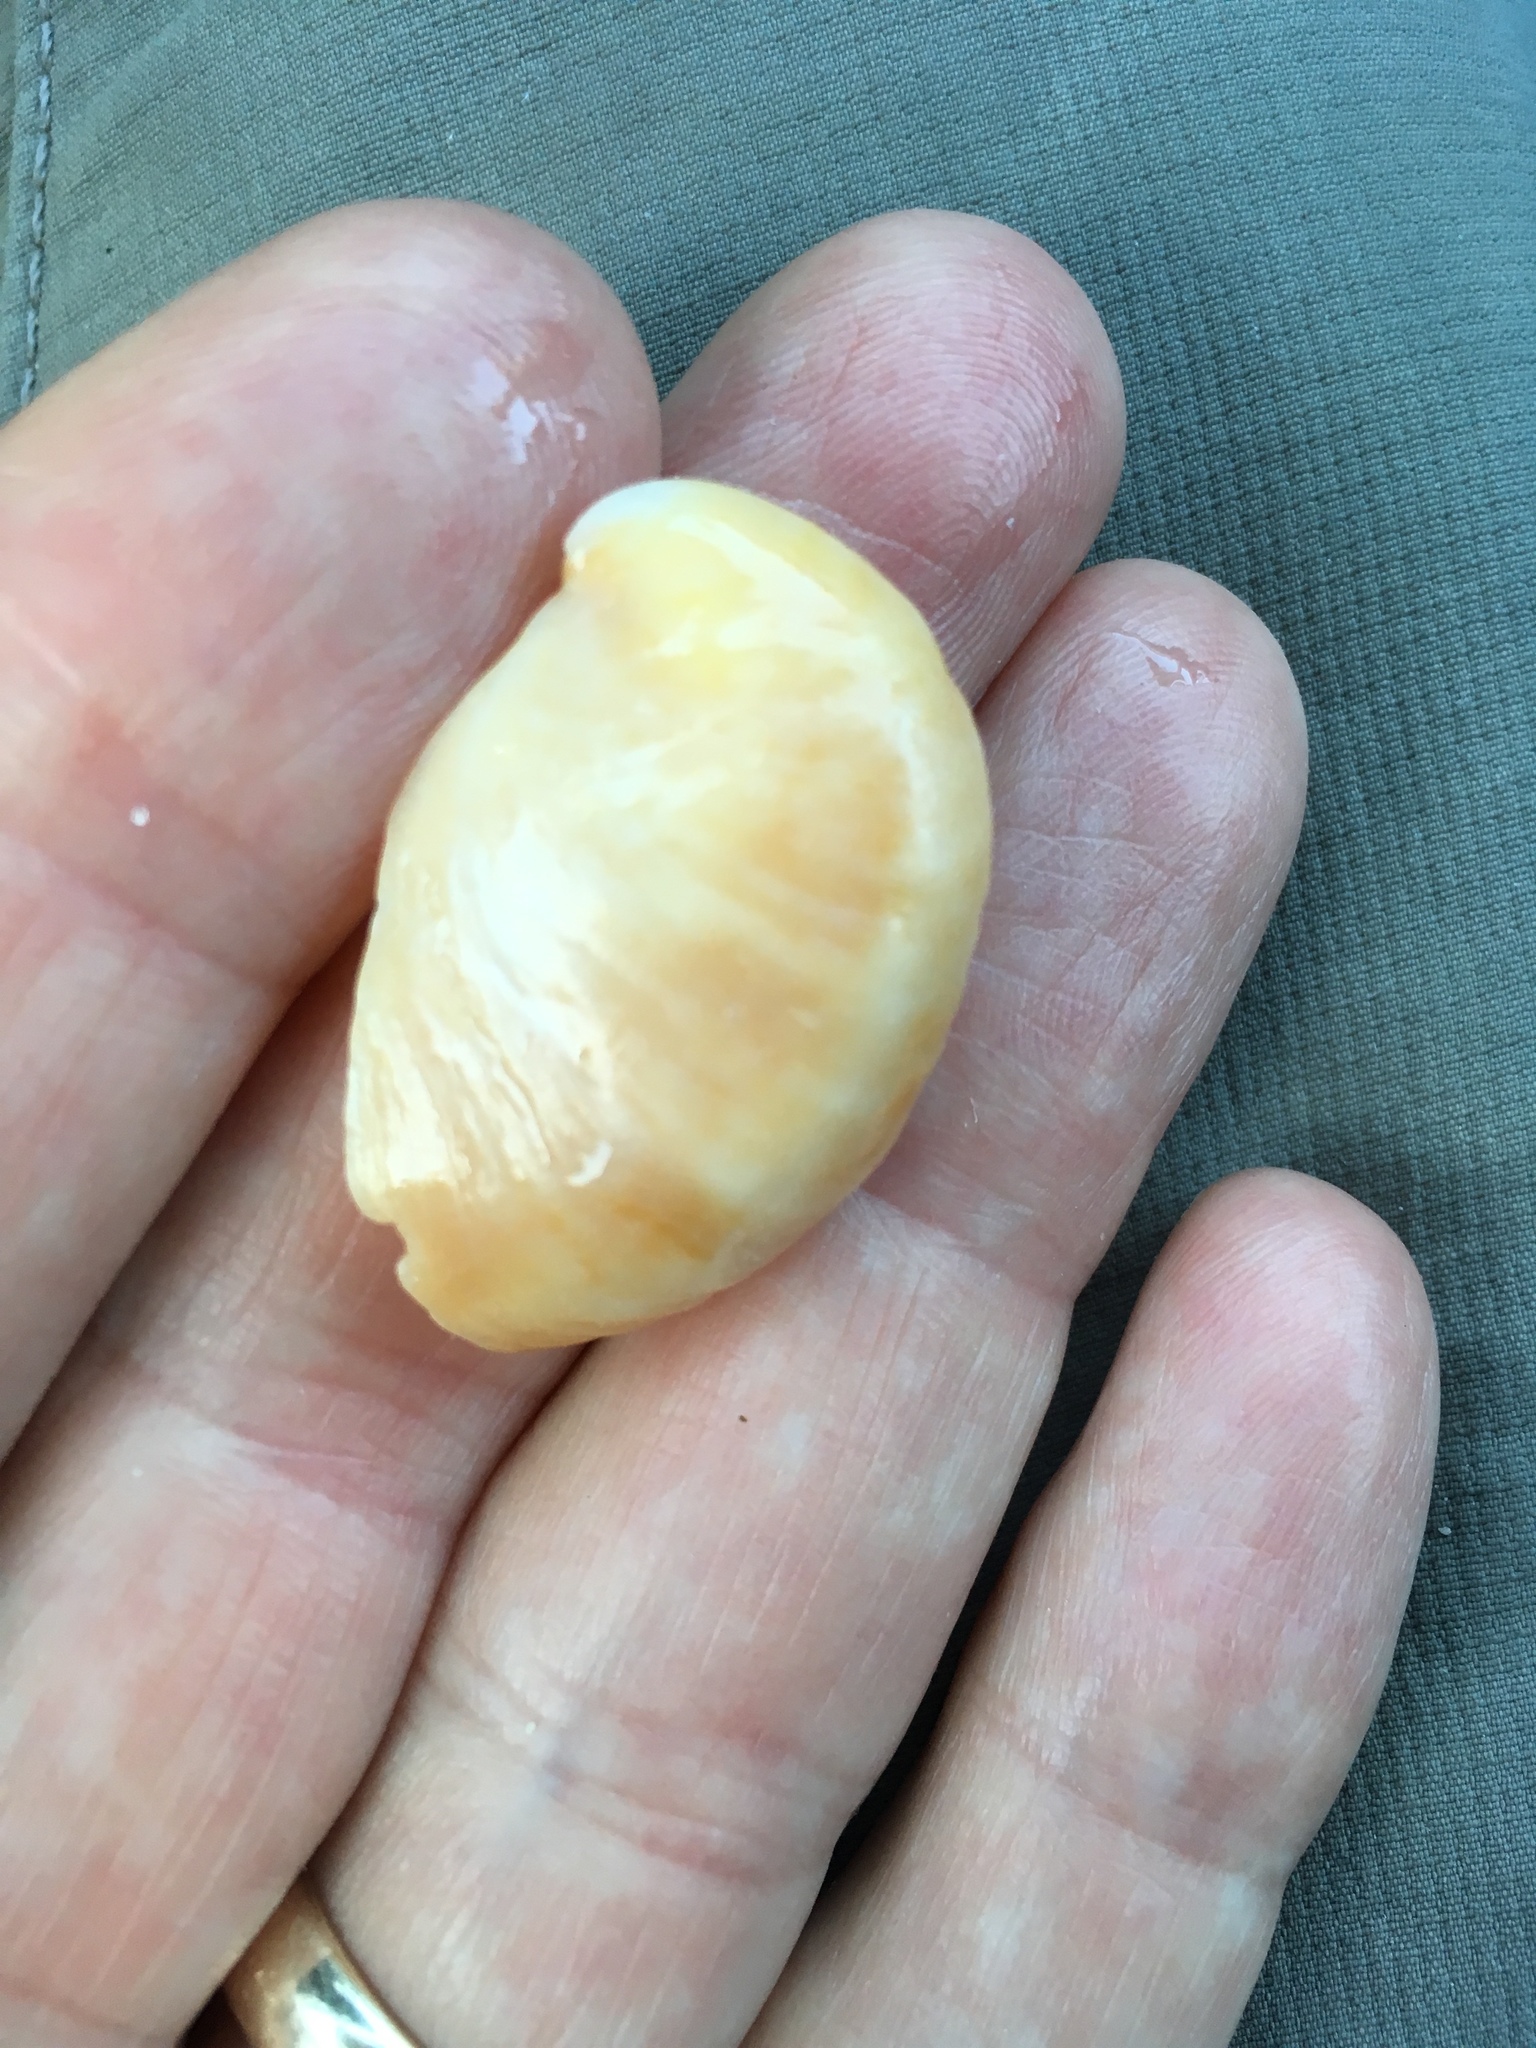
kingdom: Animalia
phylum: Mollusca
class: Gastropoda
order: Littorinimorpha
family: Calyptraeidae
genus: Crepidula
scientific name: Crepidula fornicata
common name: Slipper limpet
